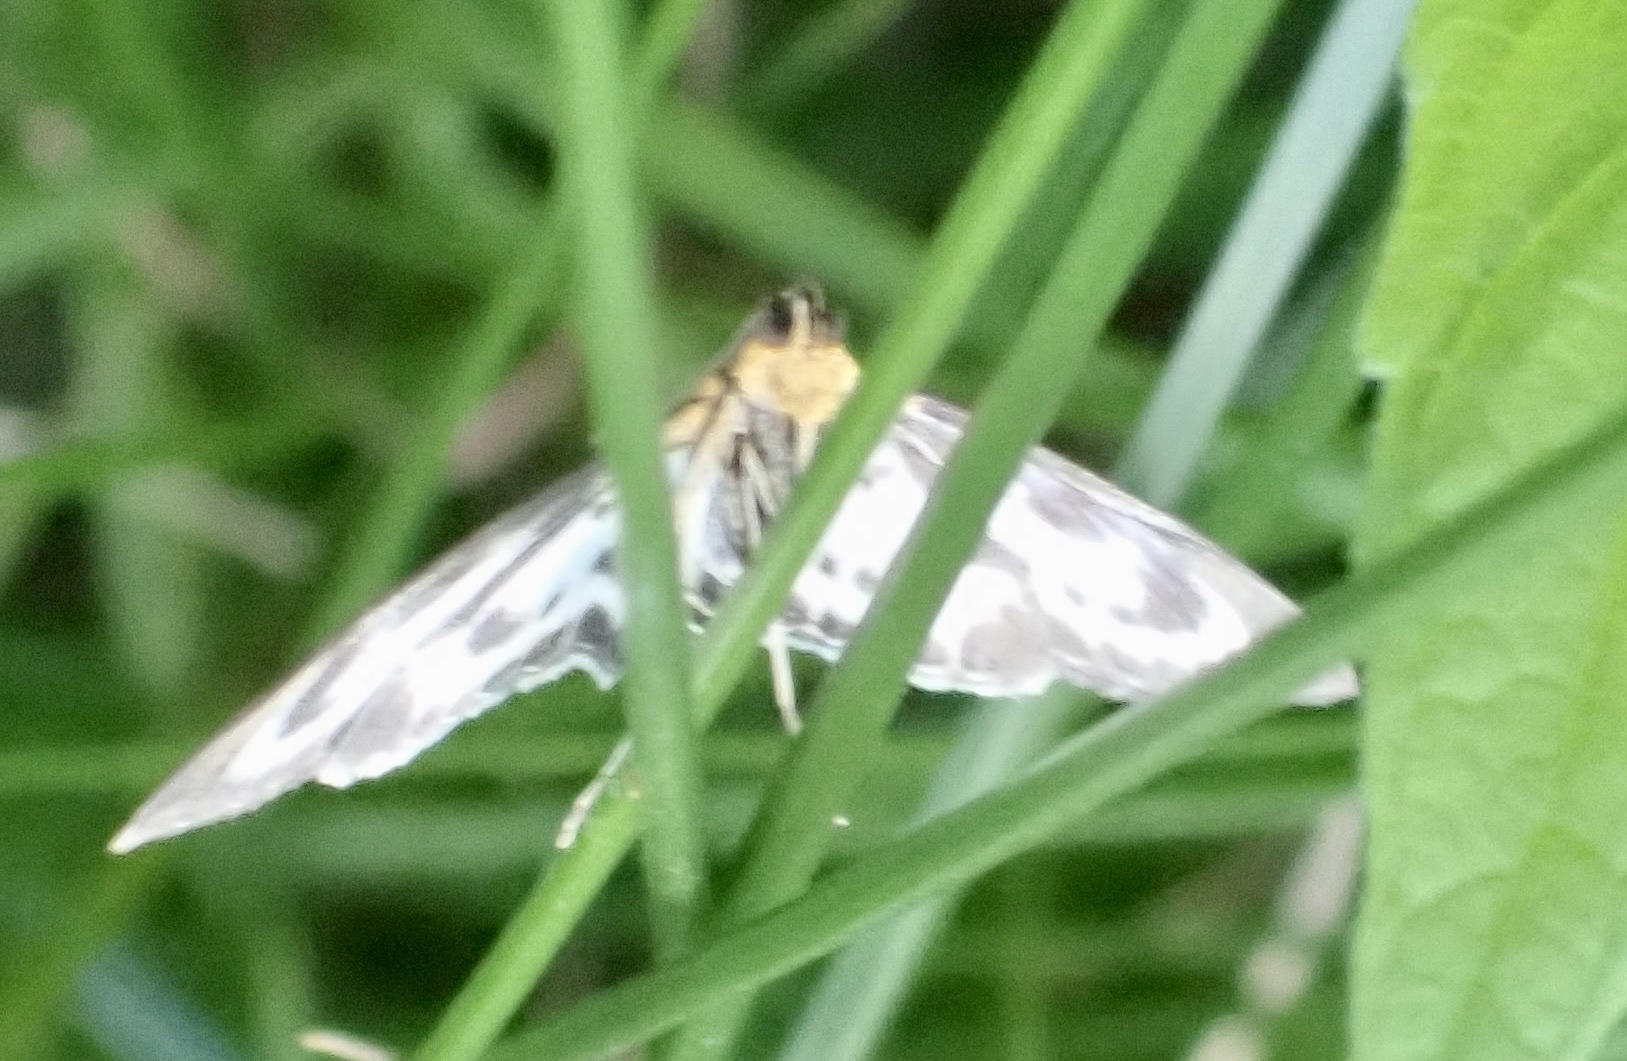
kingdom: Animalia
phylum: Arthropoda
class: Insecta
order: Lepidoptera
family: Crambidae
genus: Anania
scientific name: Anania hortulata
